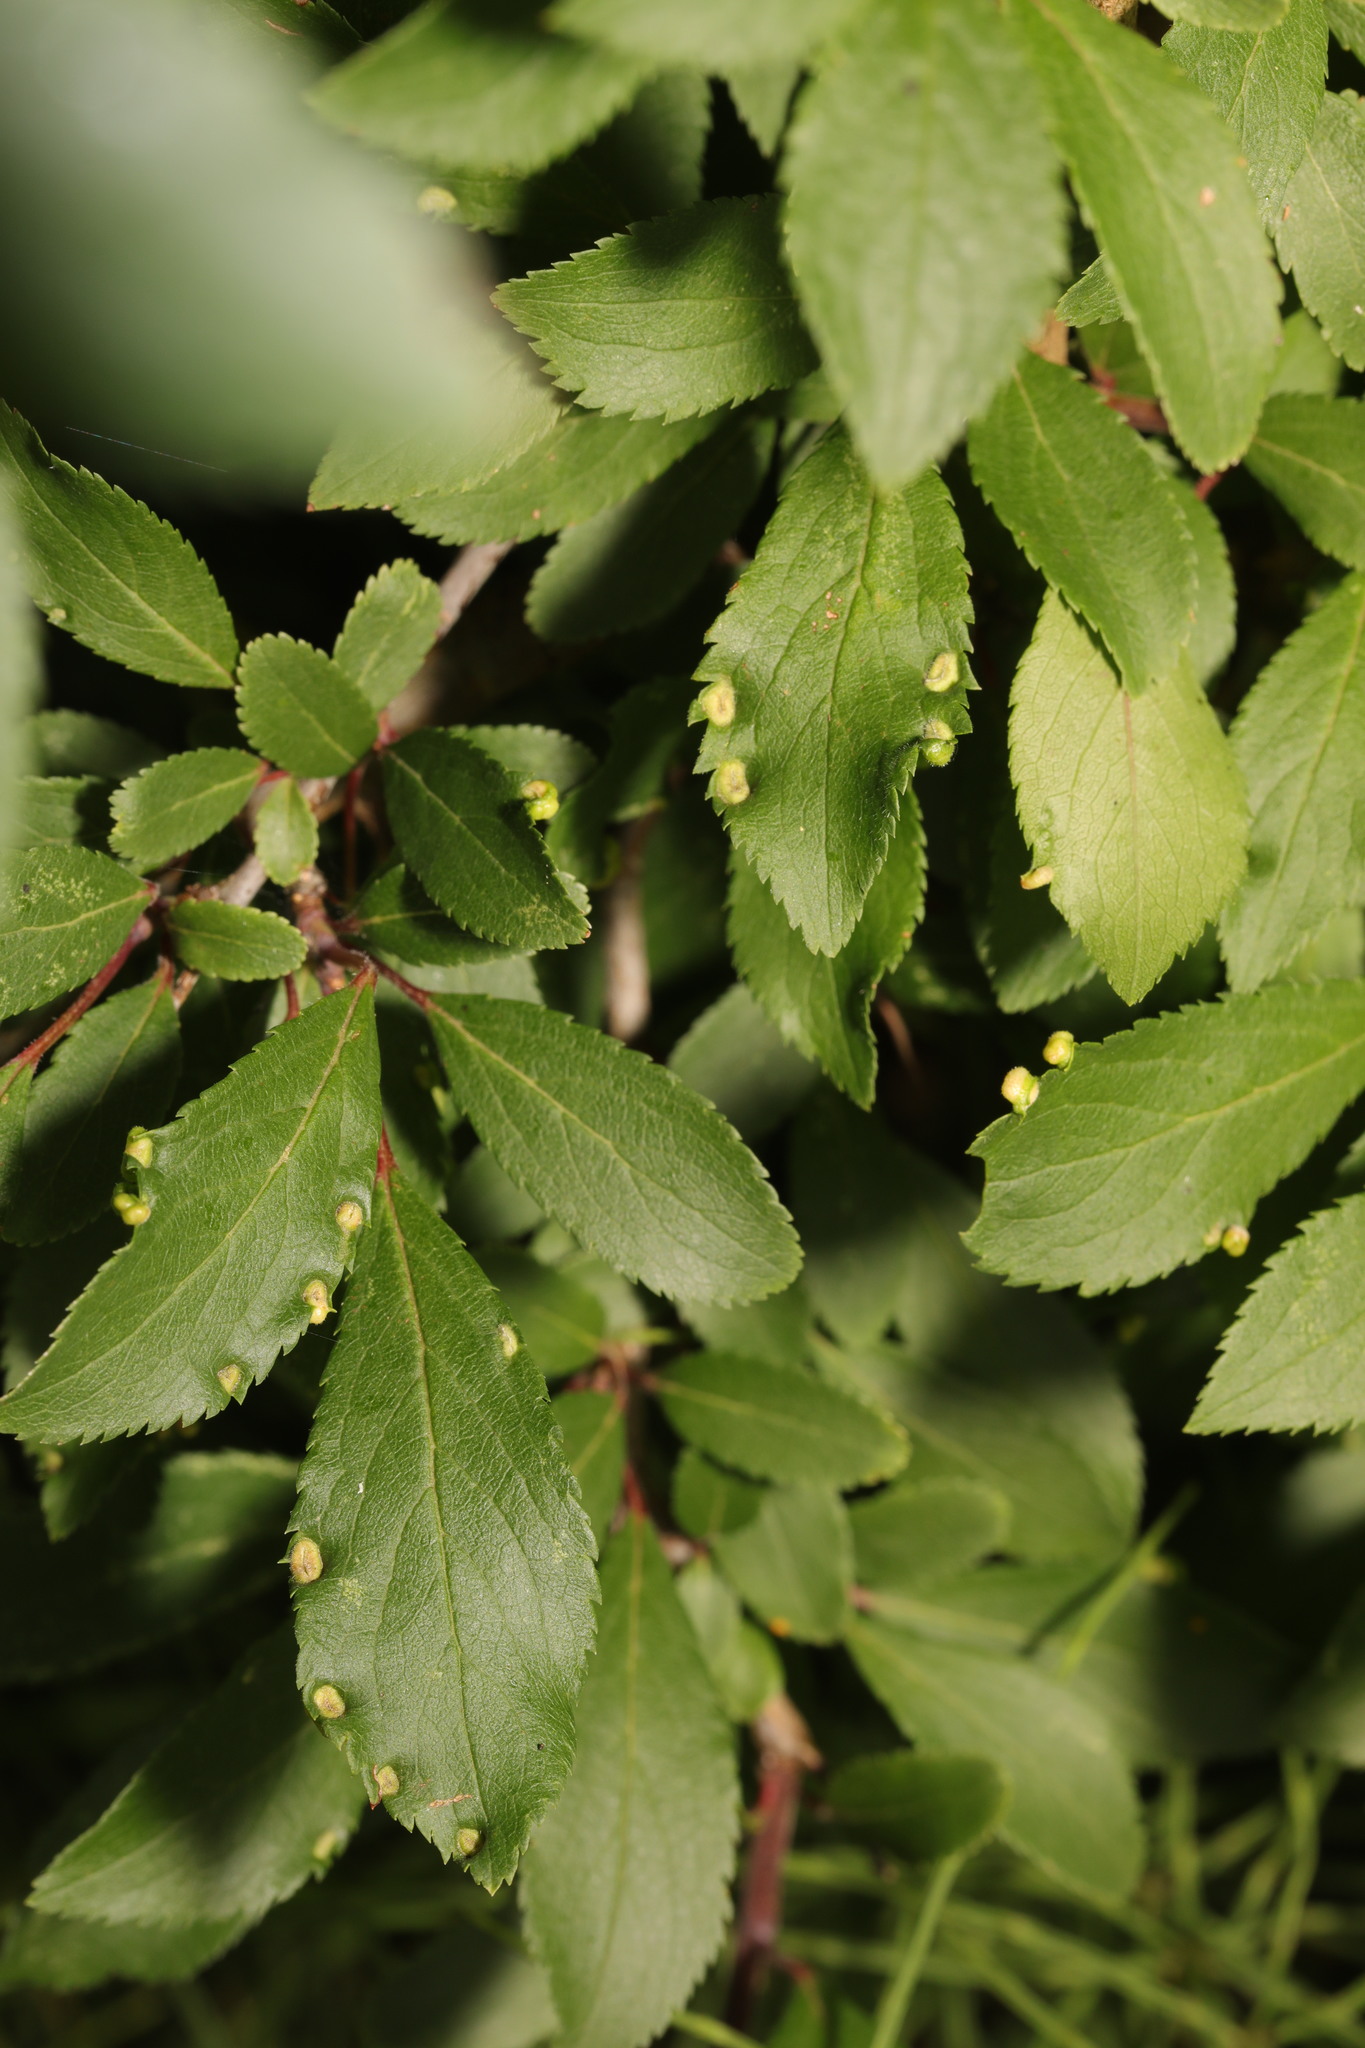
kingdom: Animalia
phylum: Arthropoda
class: Arachnida
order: Trombidiformes
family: Eriophyidae
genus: Eriophyes
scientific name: Eriophyes similis
